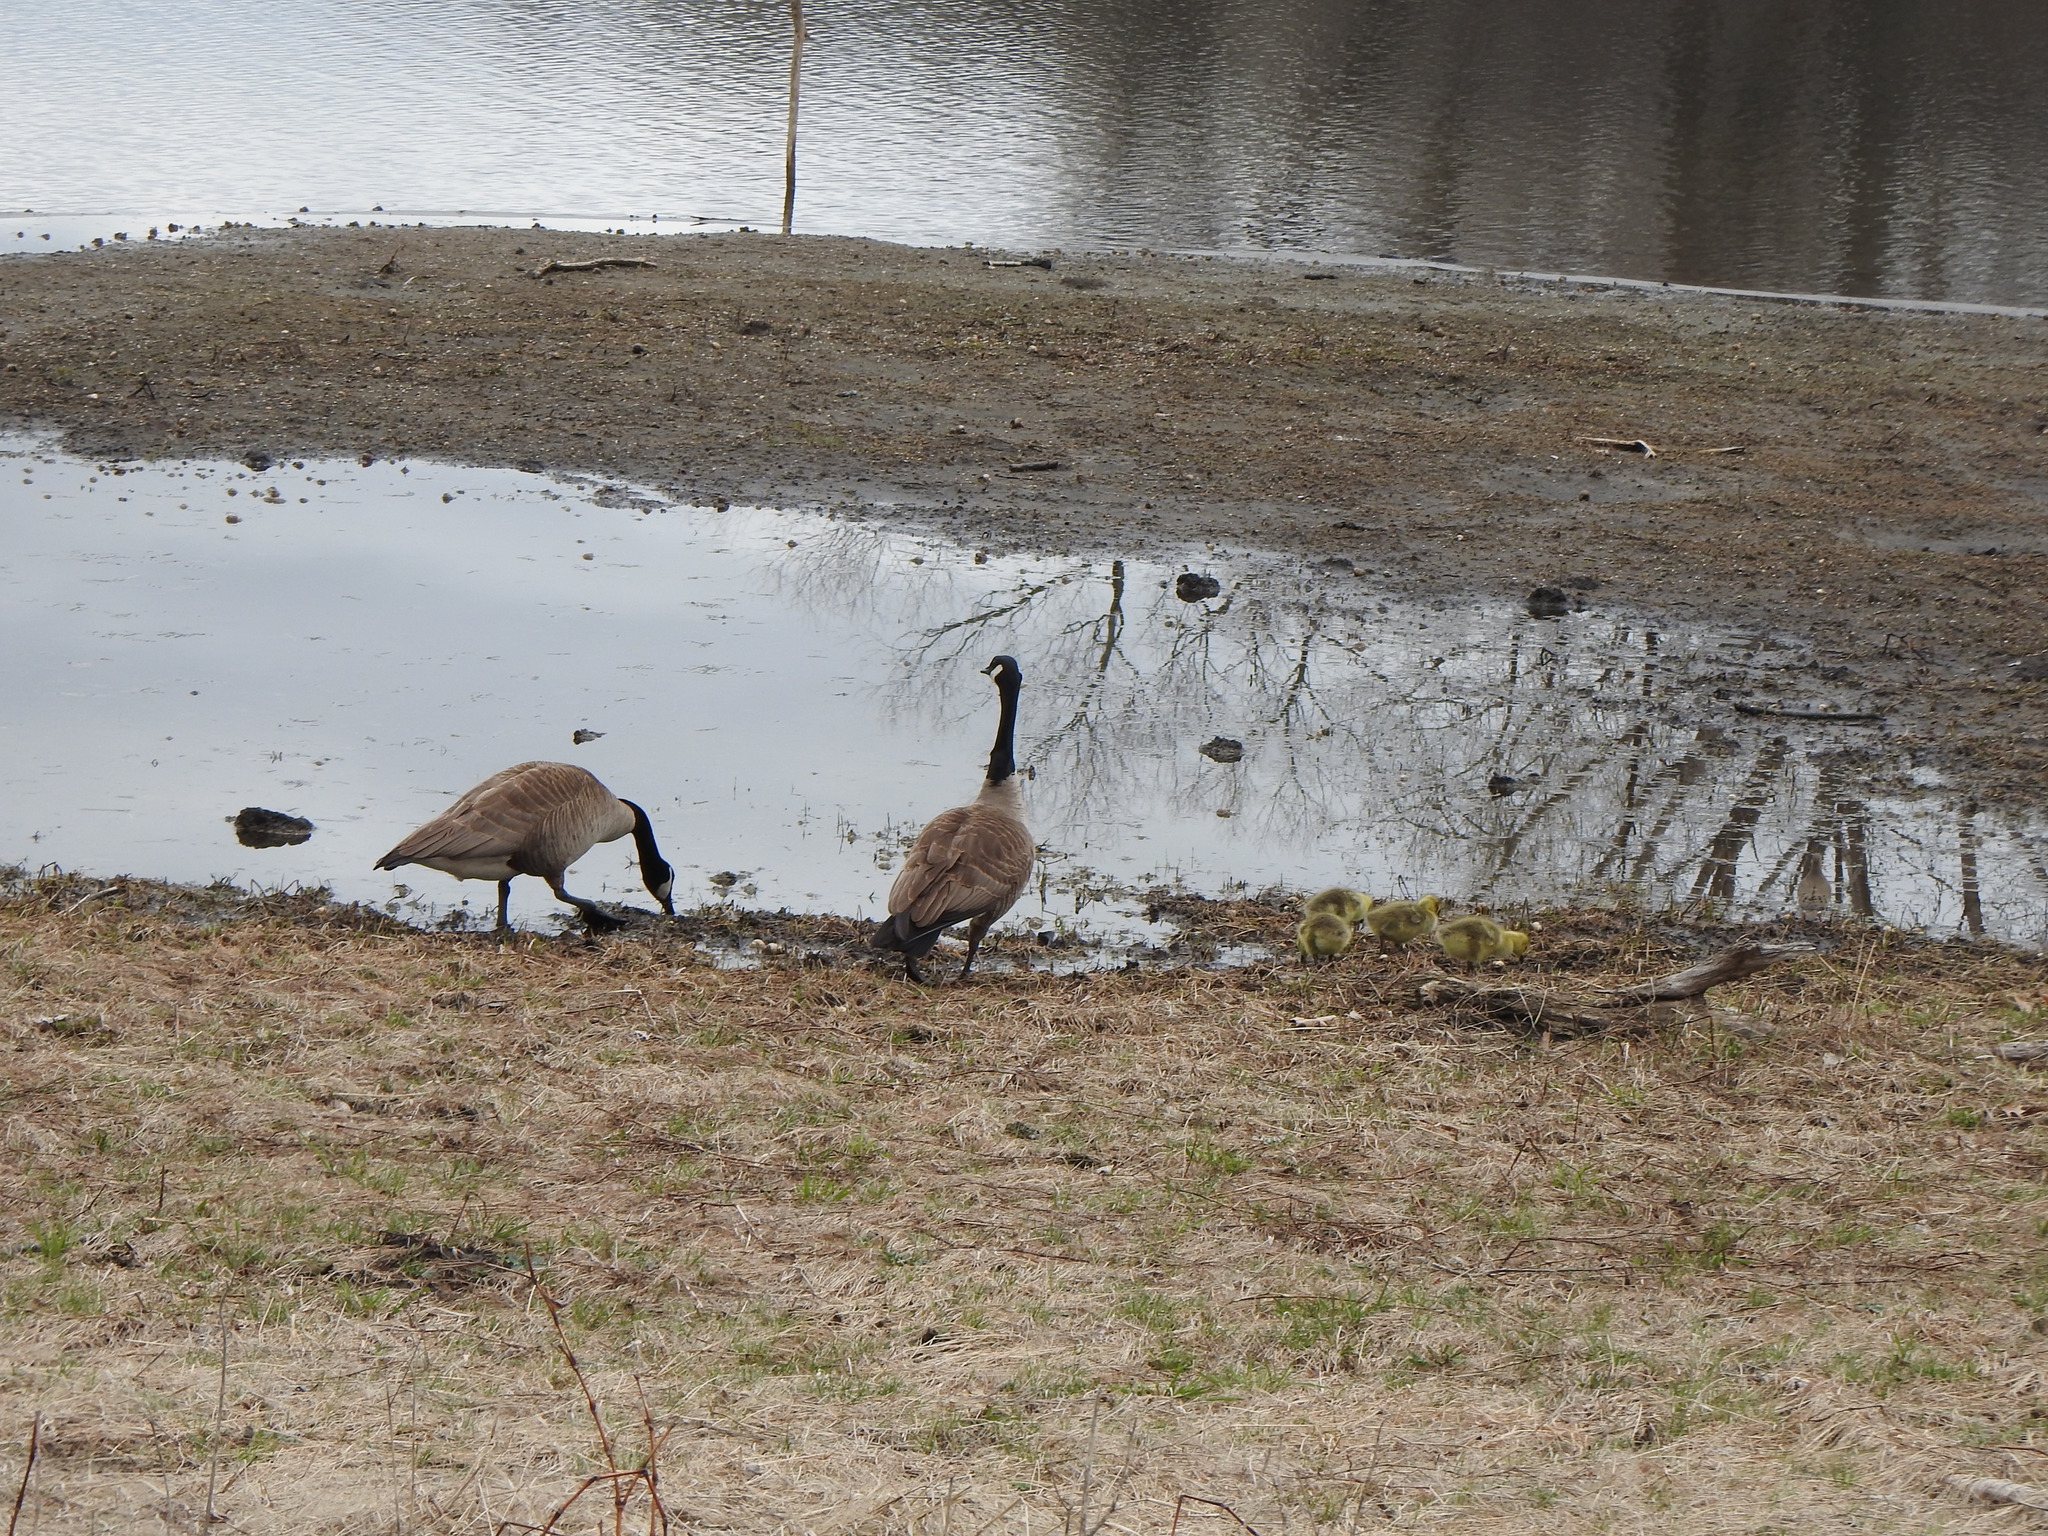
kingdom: Animalia
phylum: Chordata
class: Aves
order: Anseriformes
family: Anatidae
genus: Branta
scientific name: Branta canadensis
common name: Canada goose
